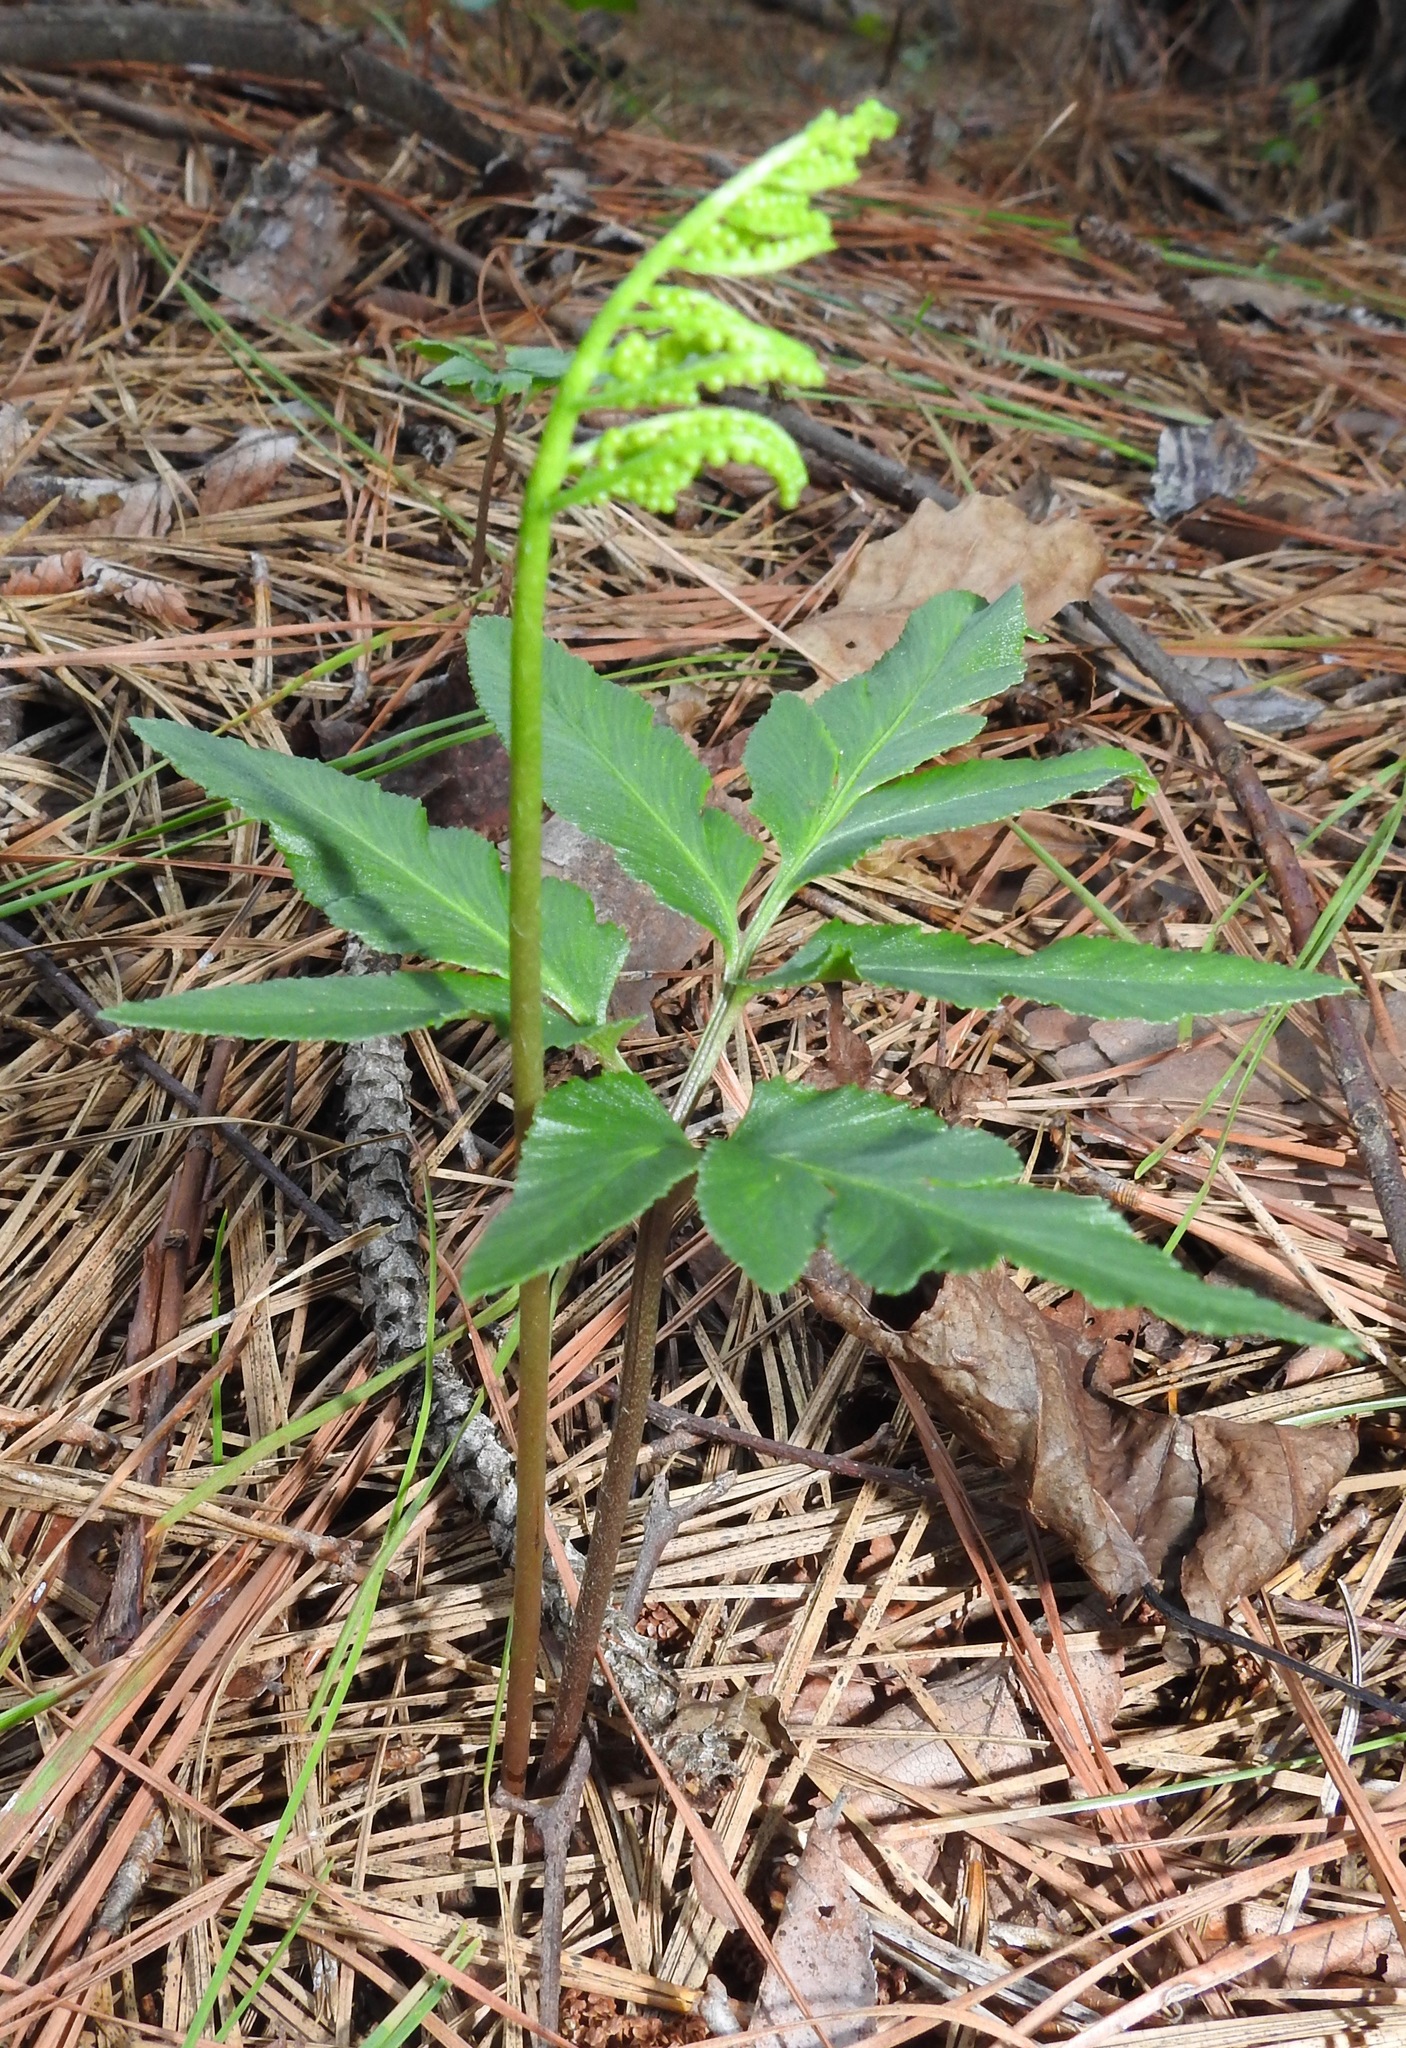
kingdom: Plantae
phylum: Tracheophyta
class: Polypodiopsida
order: Ophioglossales
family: Ophioglossaceae
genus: Sceptridium
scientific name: Sceptridium biternatum
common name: Sparse-lobed grapefern
